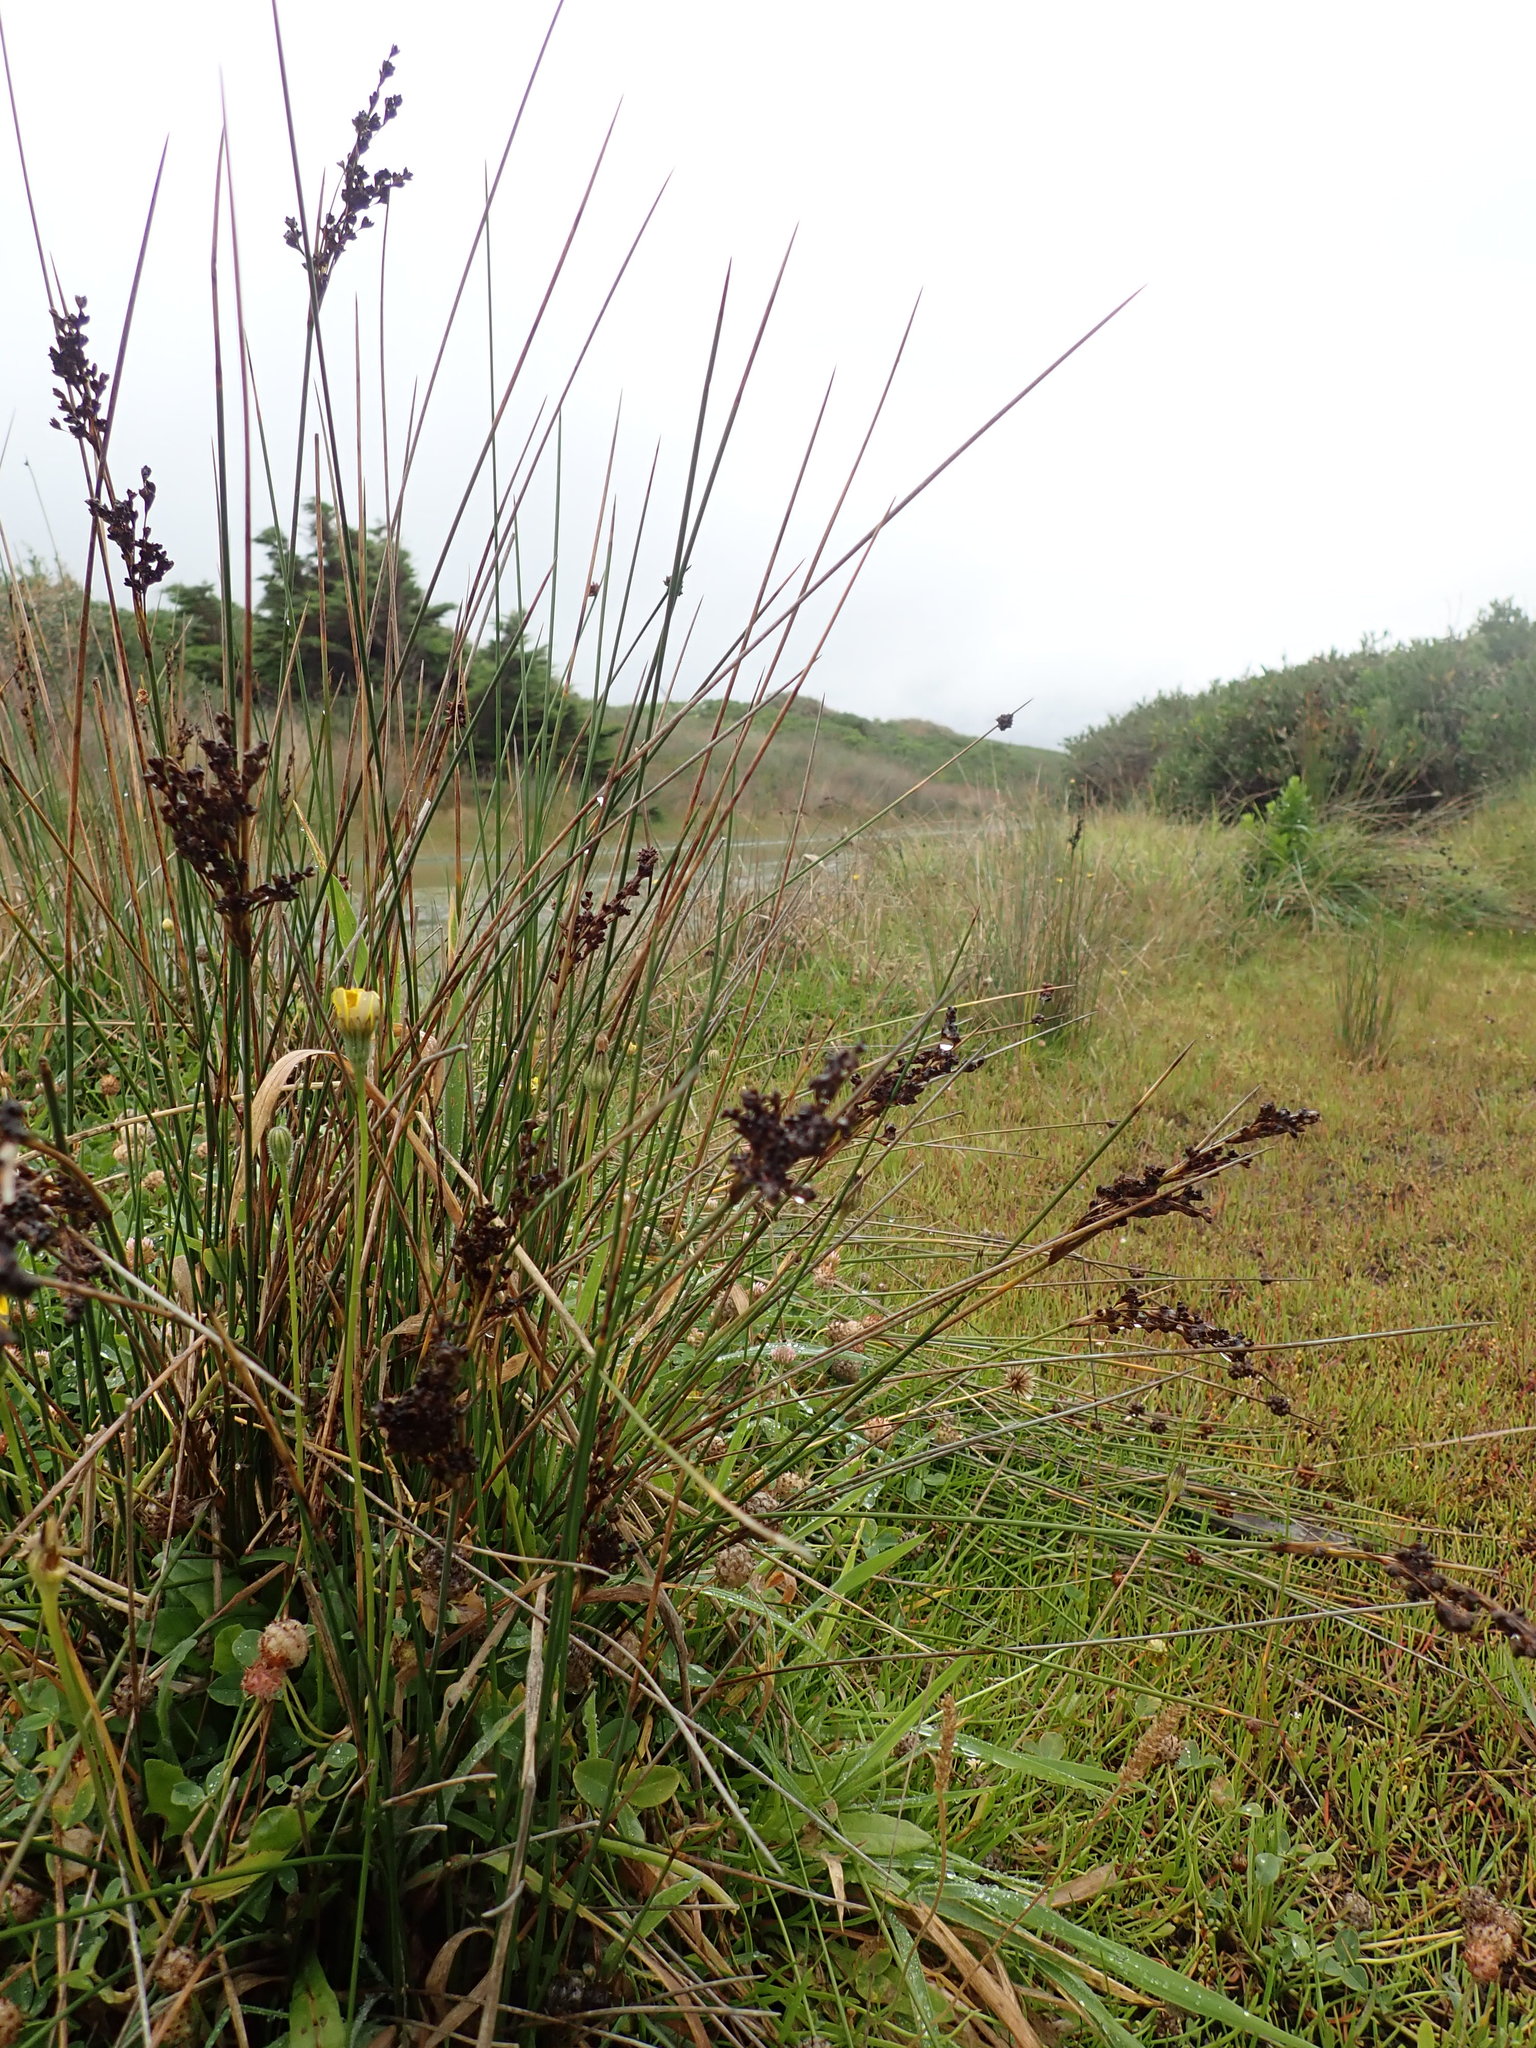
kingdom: Plantae
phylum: Tracheophyta
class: Liliopsida
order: Poales
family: Juncaceae
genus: Juncus
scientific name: Juncus kraussii
